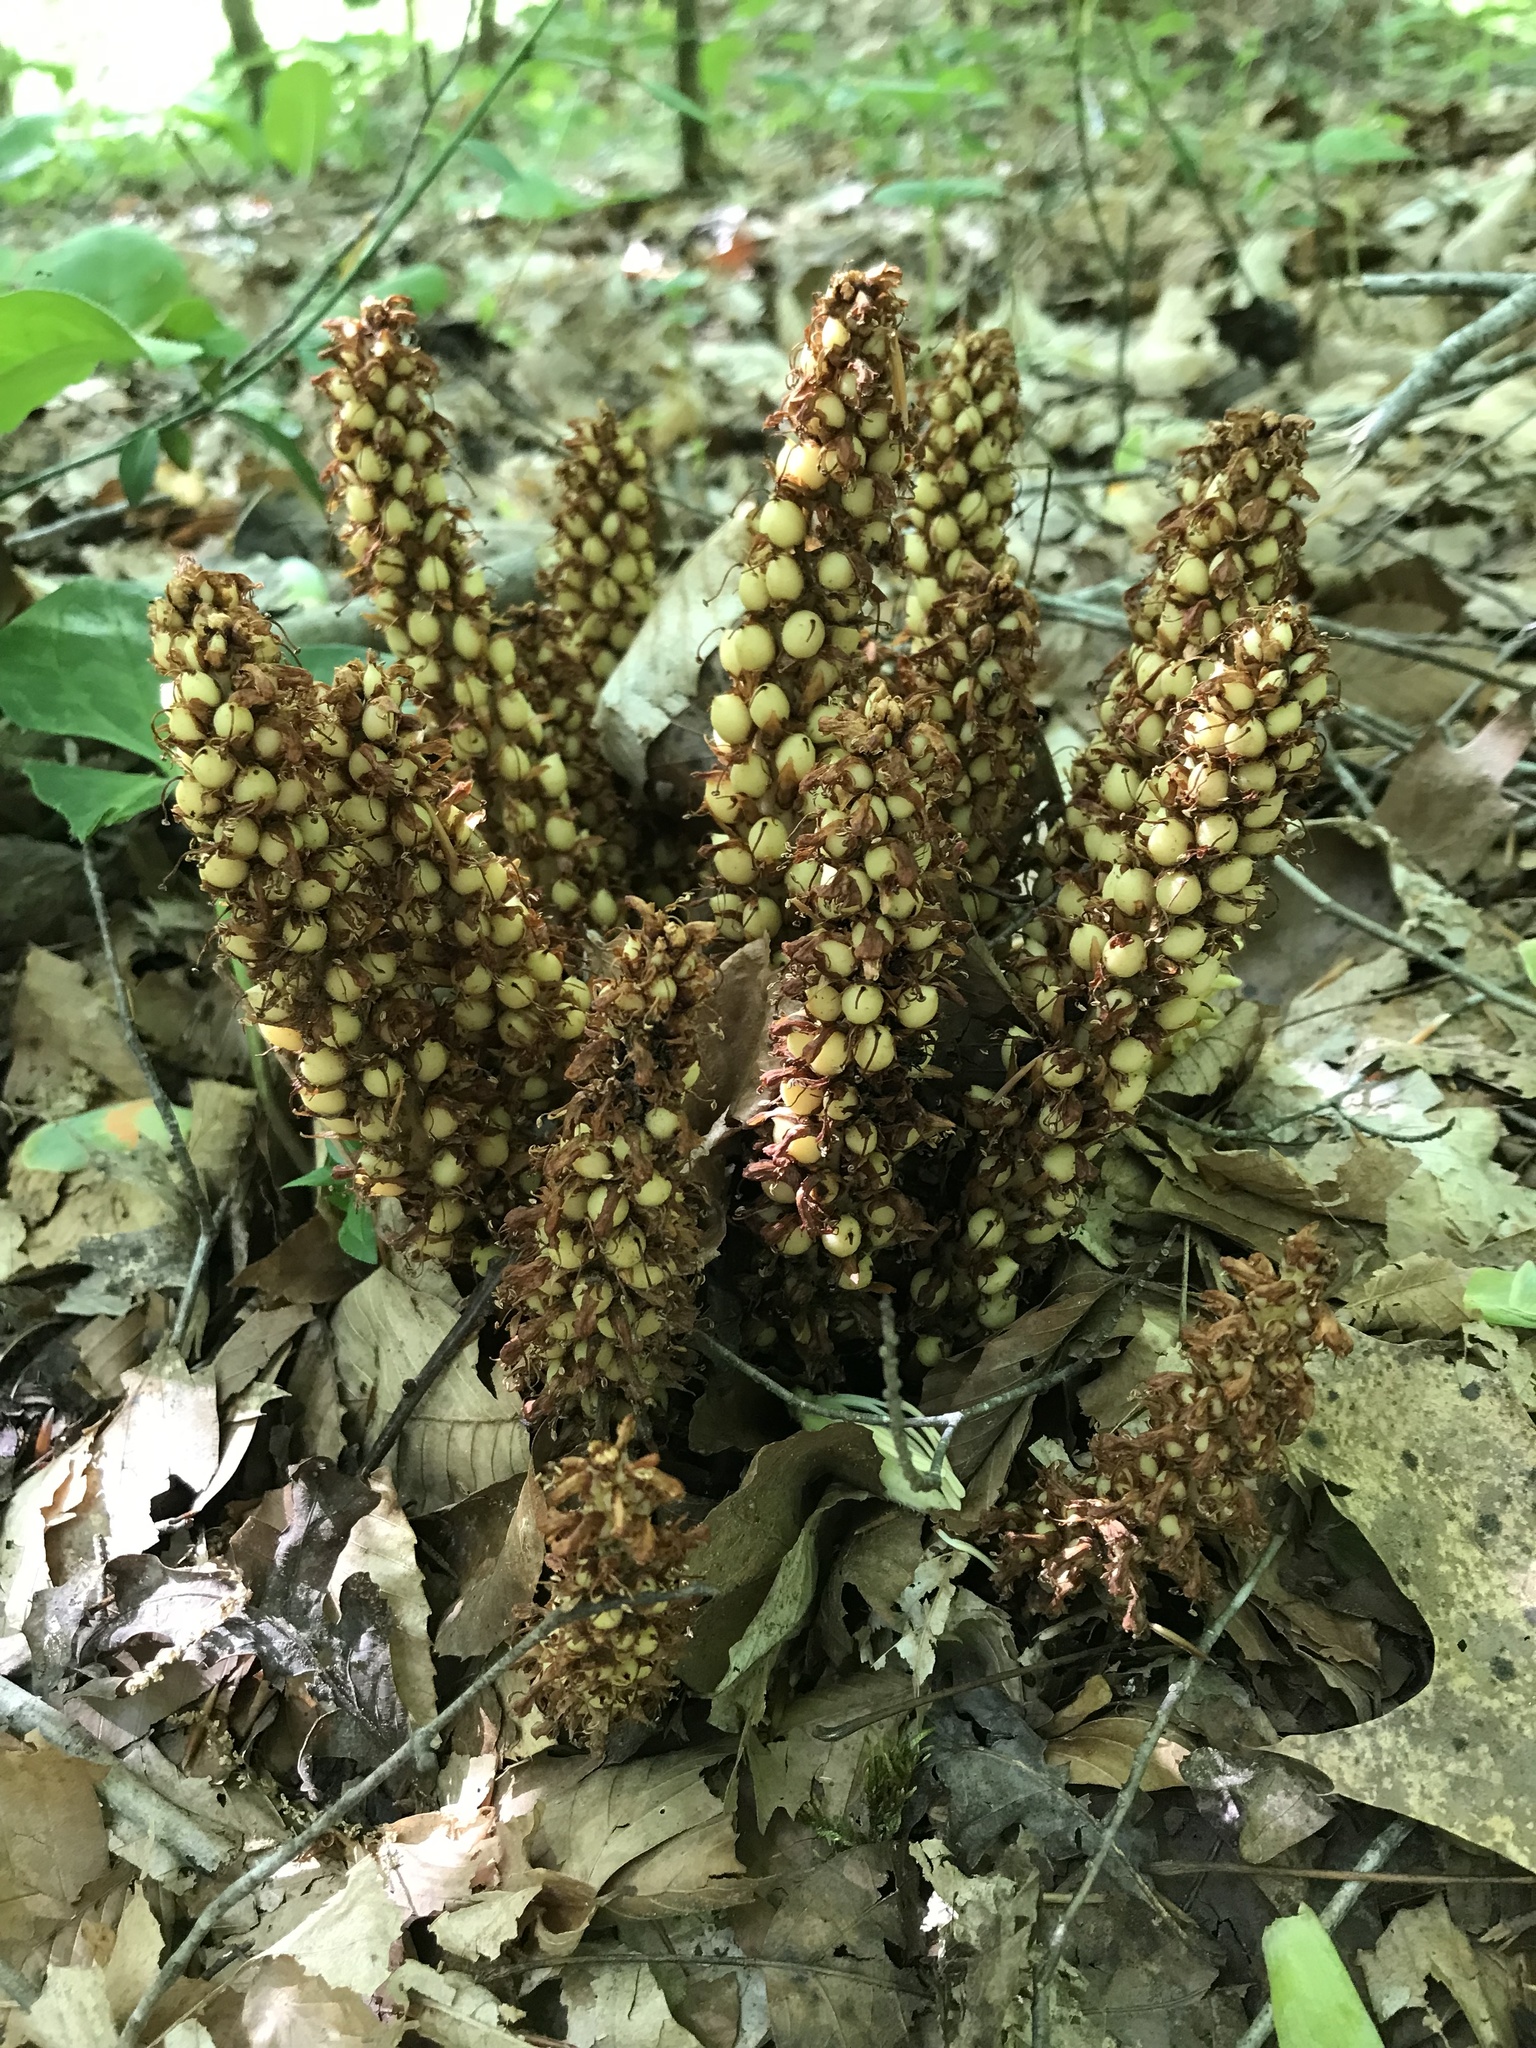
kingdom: Plantae
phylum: Tracheophyta
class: Magnoliopsida
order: Lamiales
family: Orobanchaceae
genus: Conopholis
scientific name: Conopholis americana
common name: American cancer-root
